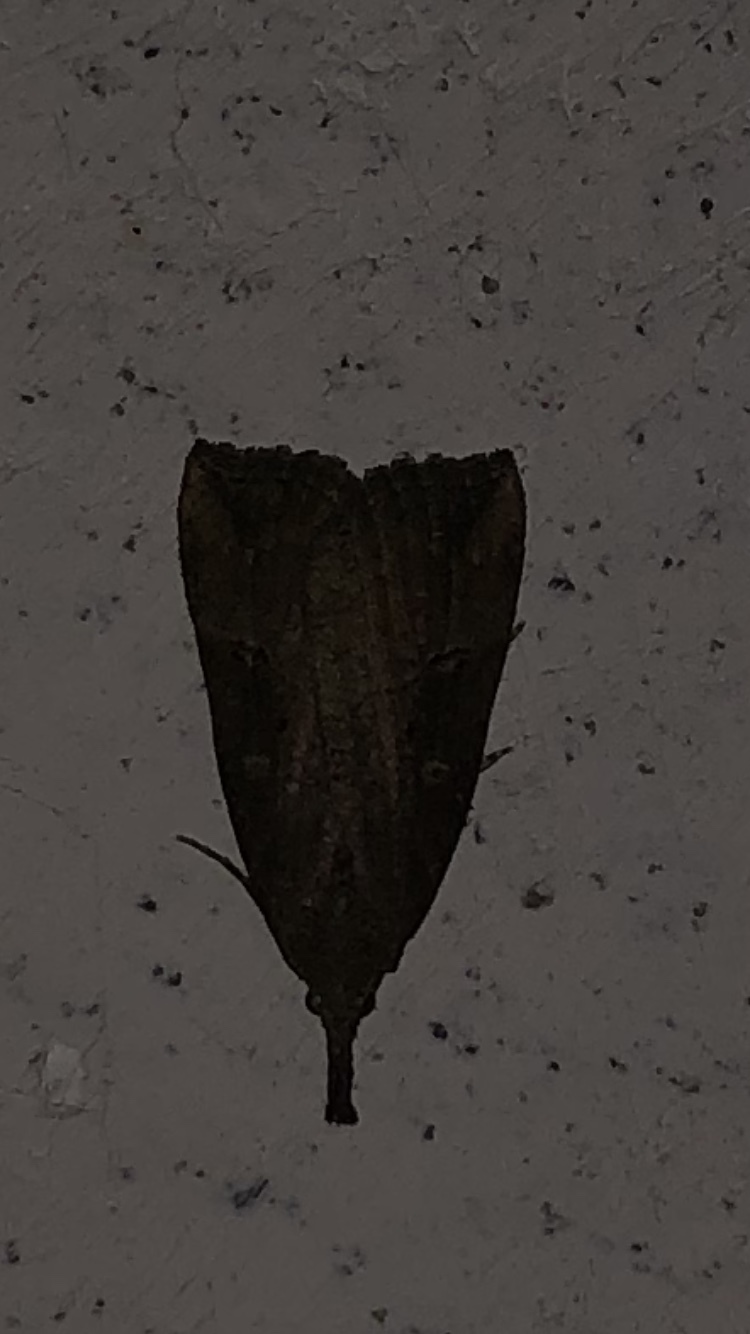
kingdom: Animalia
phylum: Arthropoda
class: Insecta
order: Lepidoptera
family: Erebidae
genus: Hypena
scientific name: Hypena rostralis
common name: Buttoned snout
